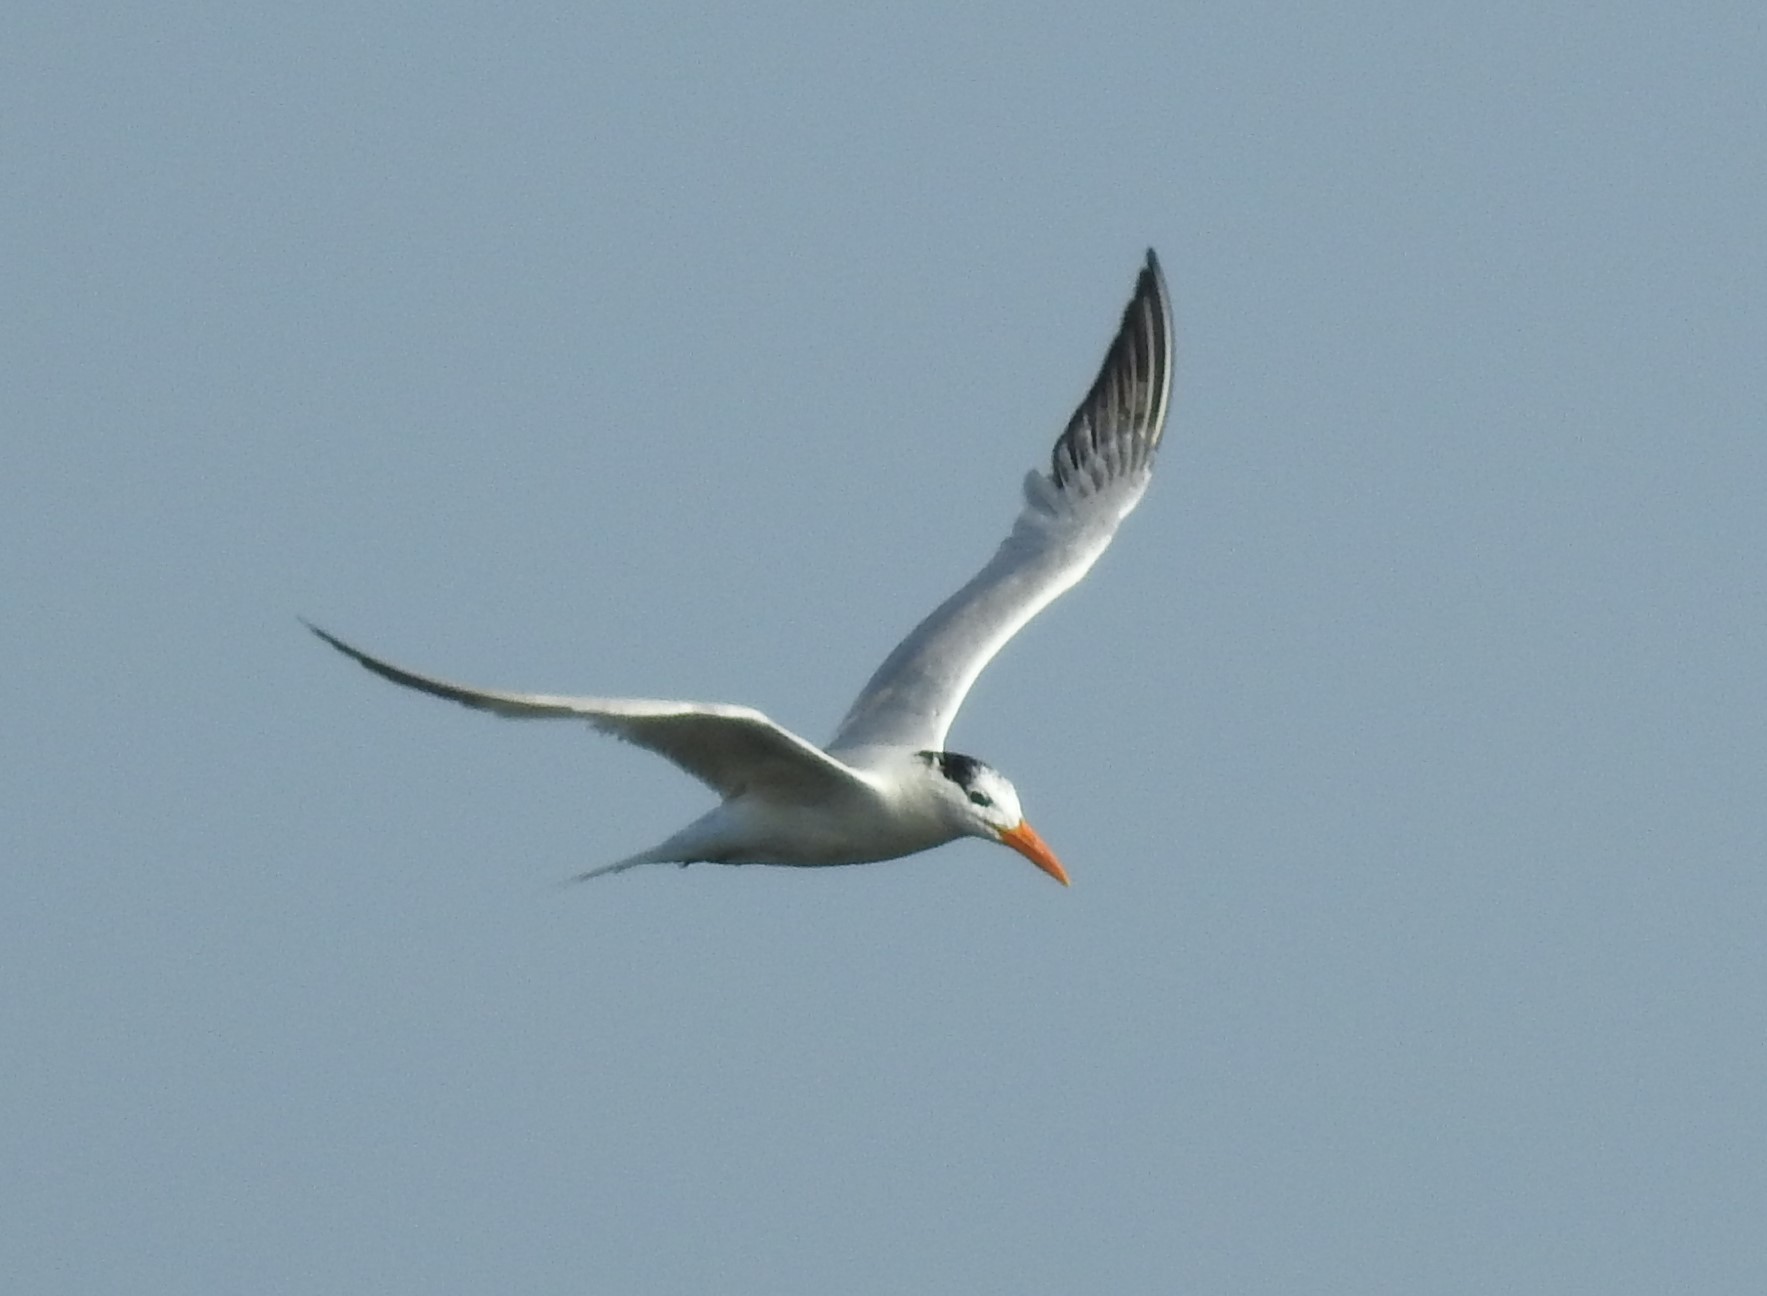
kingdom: Animalia
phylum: Chordata
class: Aves
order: Charadriiformes
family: Laridae
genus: Thalasseus
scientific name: Thalasseus maximus
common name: Royal tern
